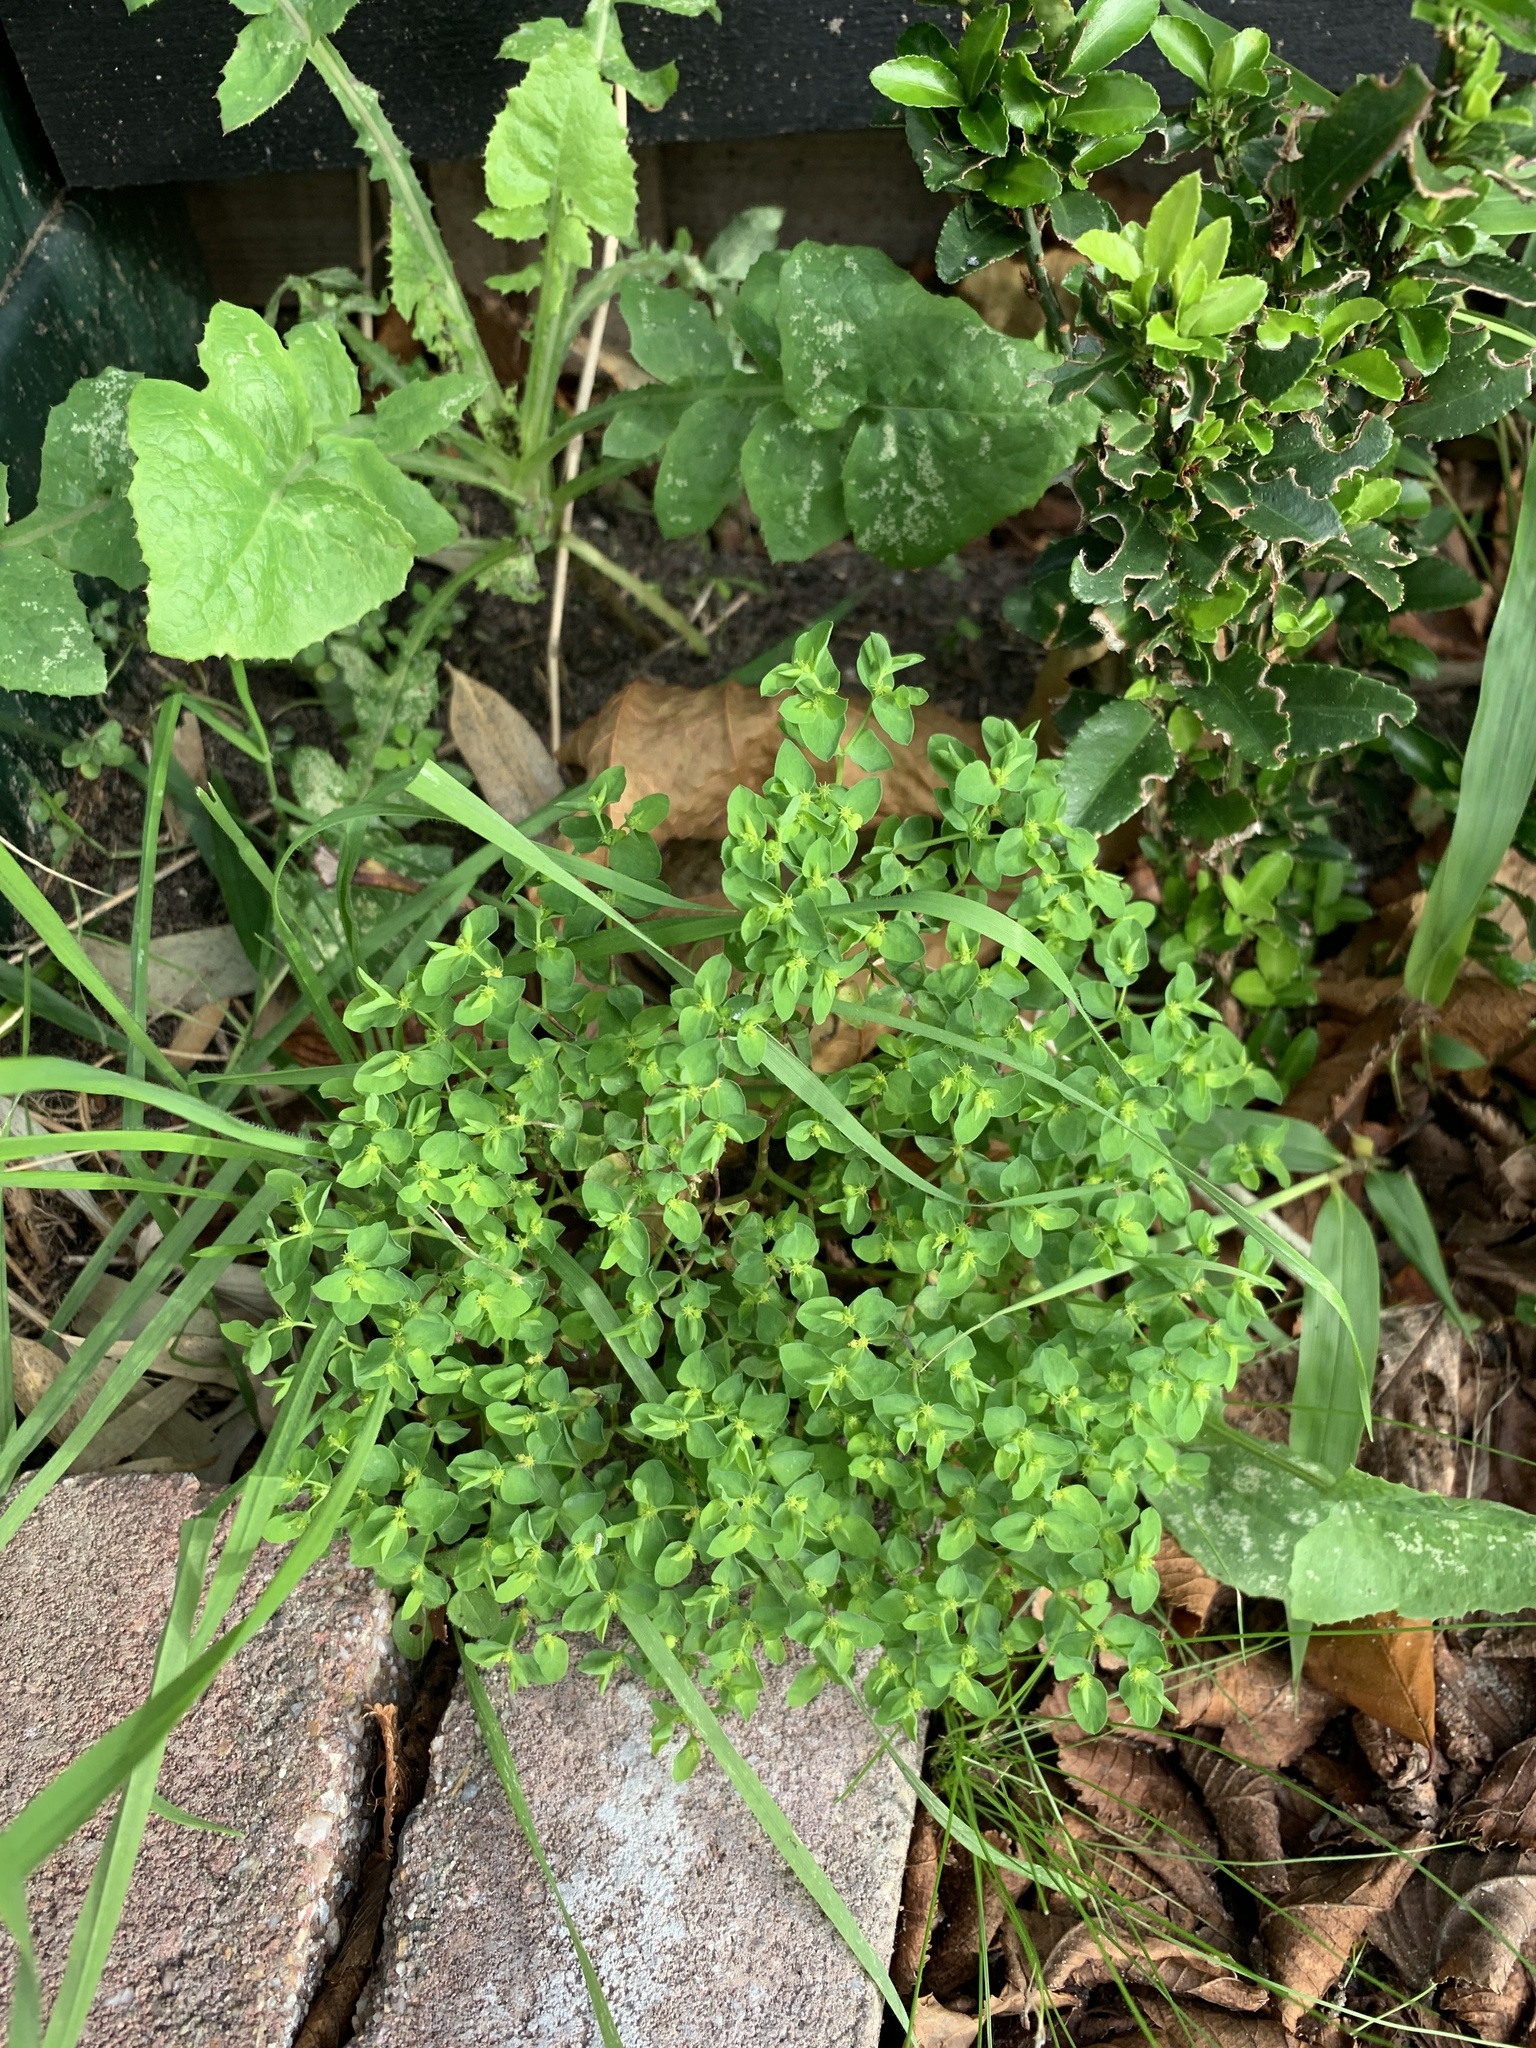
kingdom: Plantae
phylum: Tracheophyta
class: Magnoliopsida
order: Malpighiales
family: Euphorbiaceae
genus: Euphorbia
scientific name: Euphorbia peplus
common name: Petty spurge
